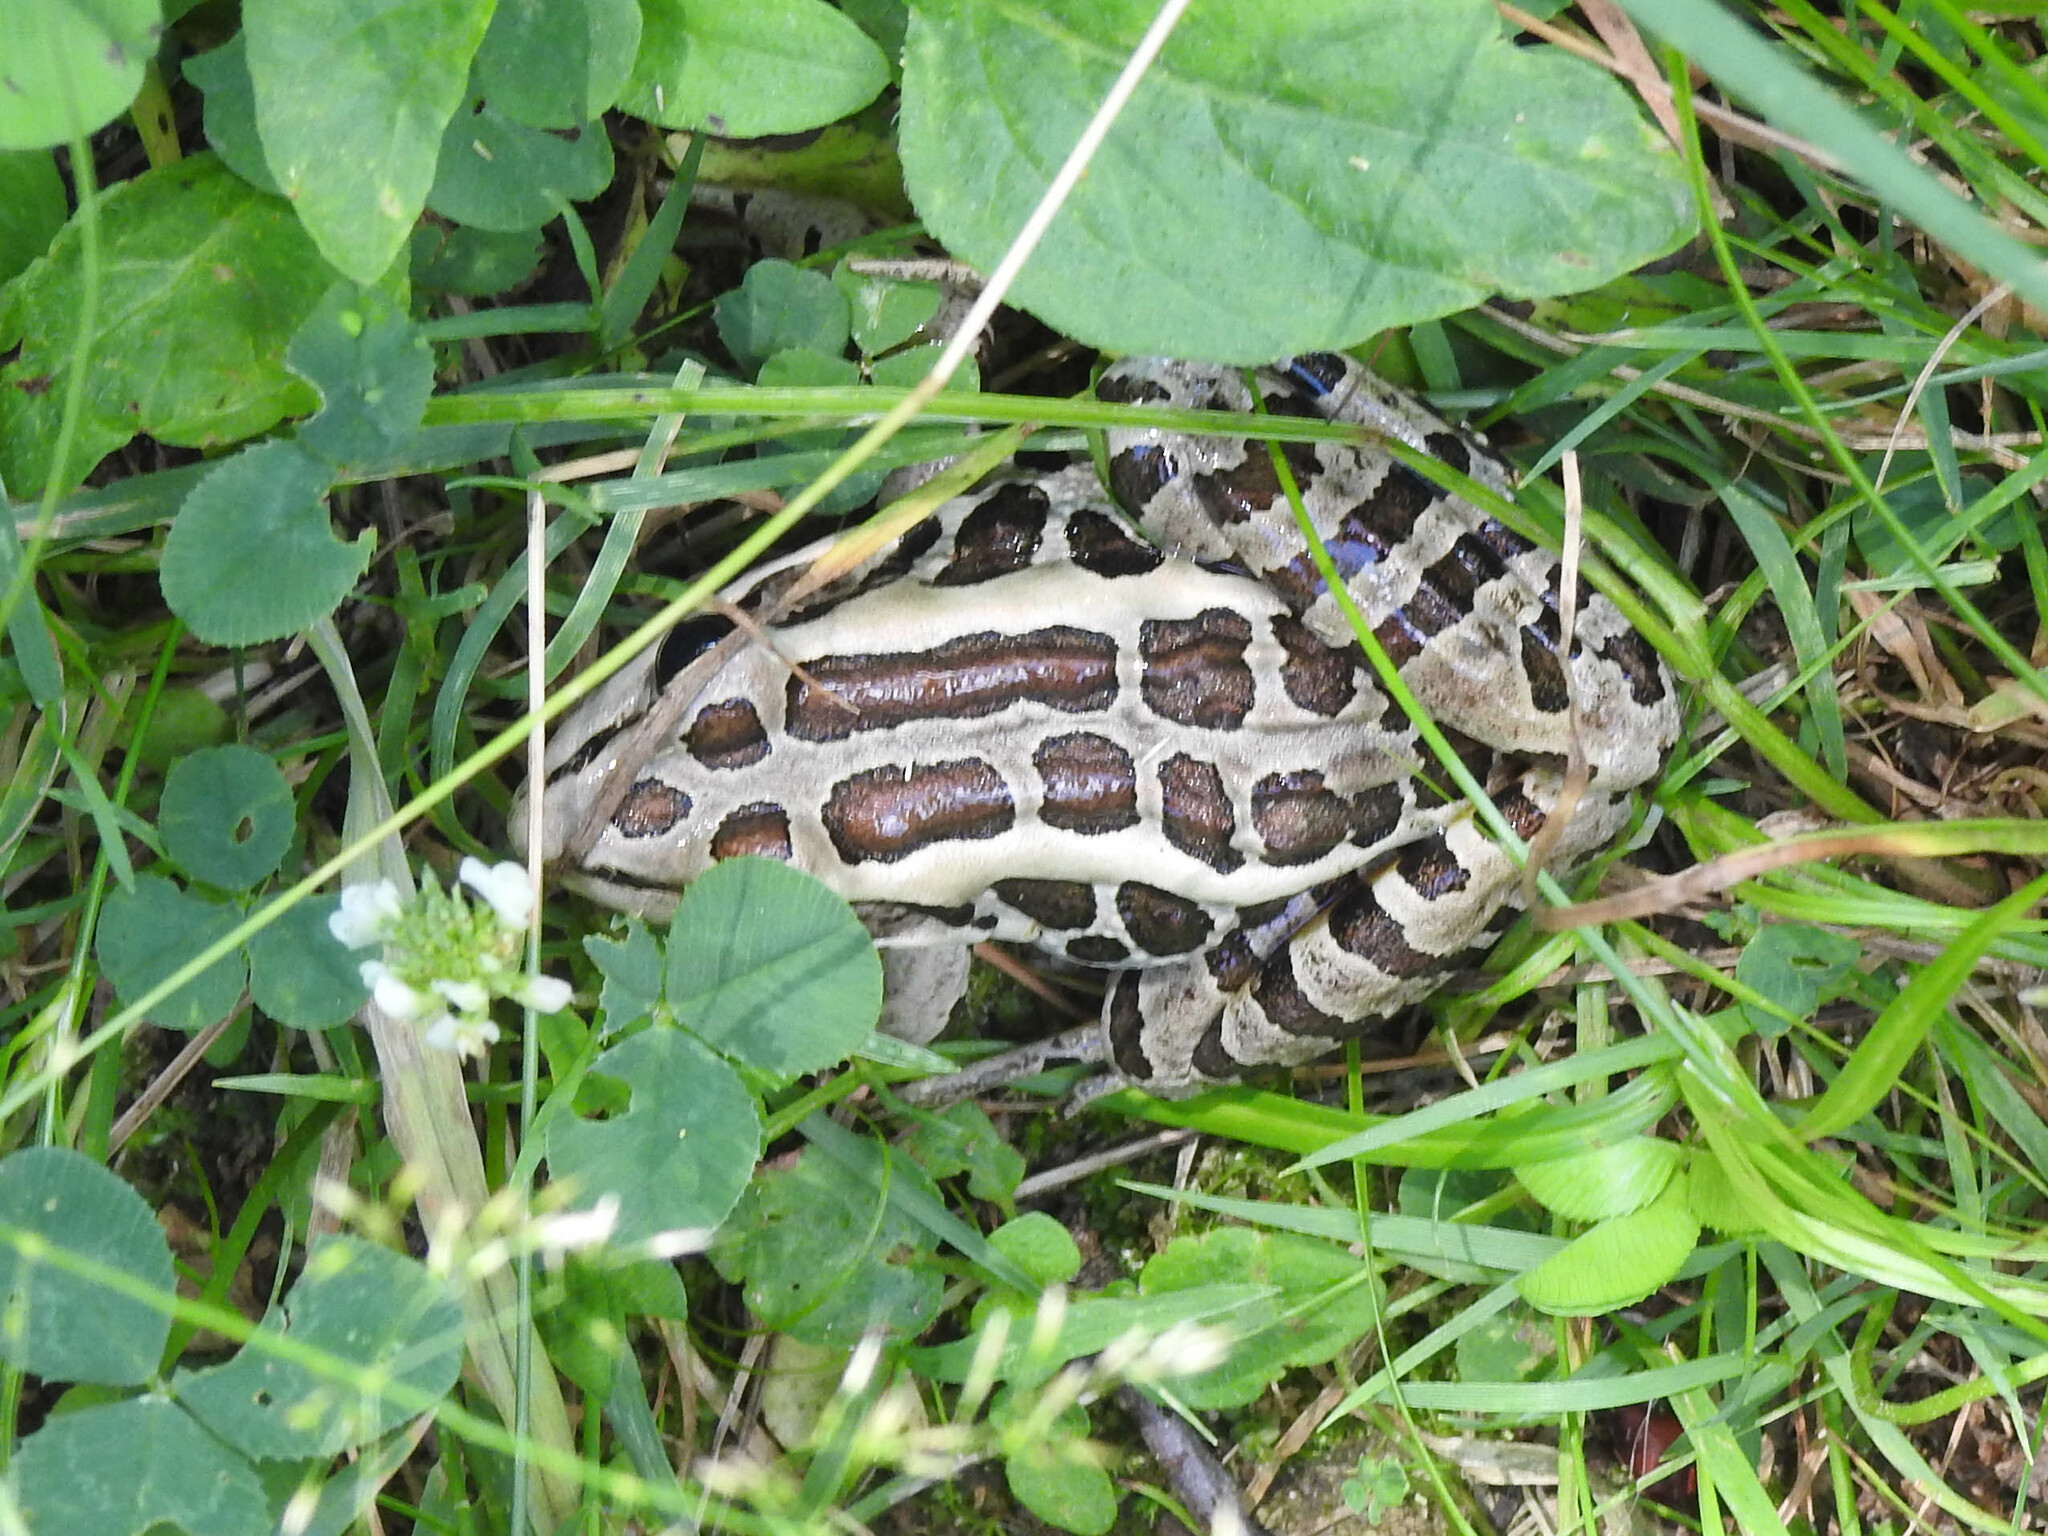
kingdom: Animalia
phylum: Chordata
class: Amphibia
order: Anura
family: Ranidae
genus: Lithobates
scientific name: Lithobates palustris
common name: Pickerel frog
